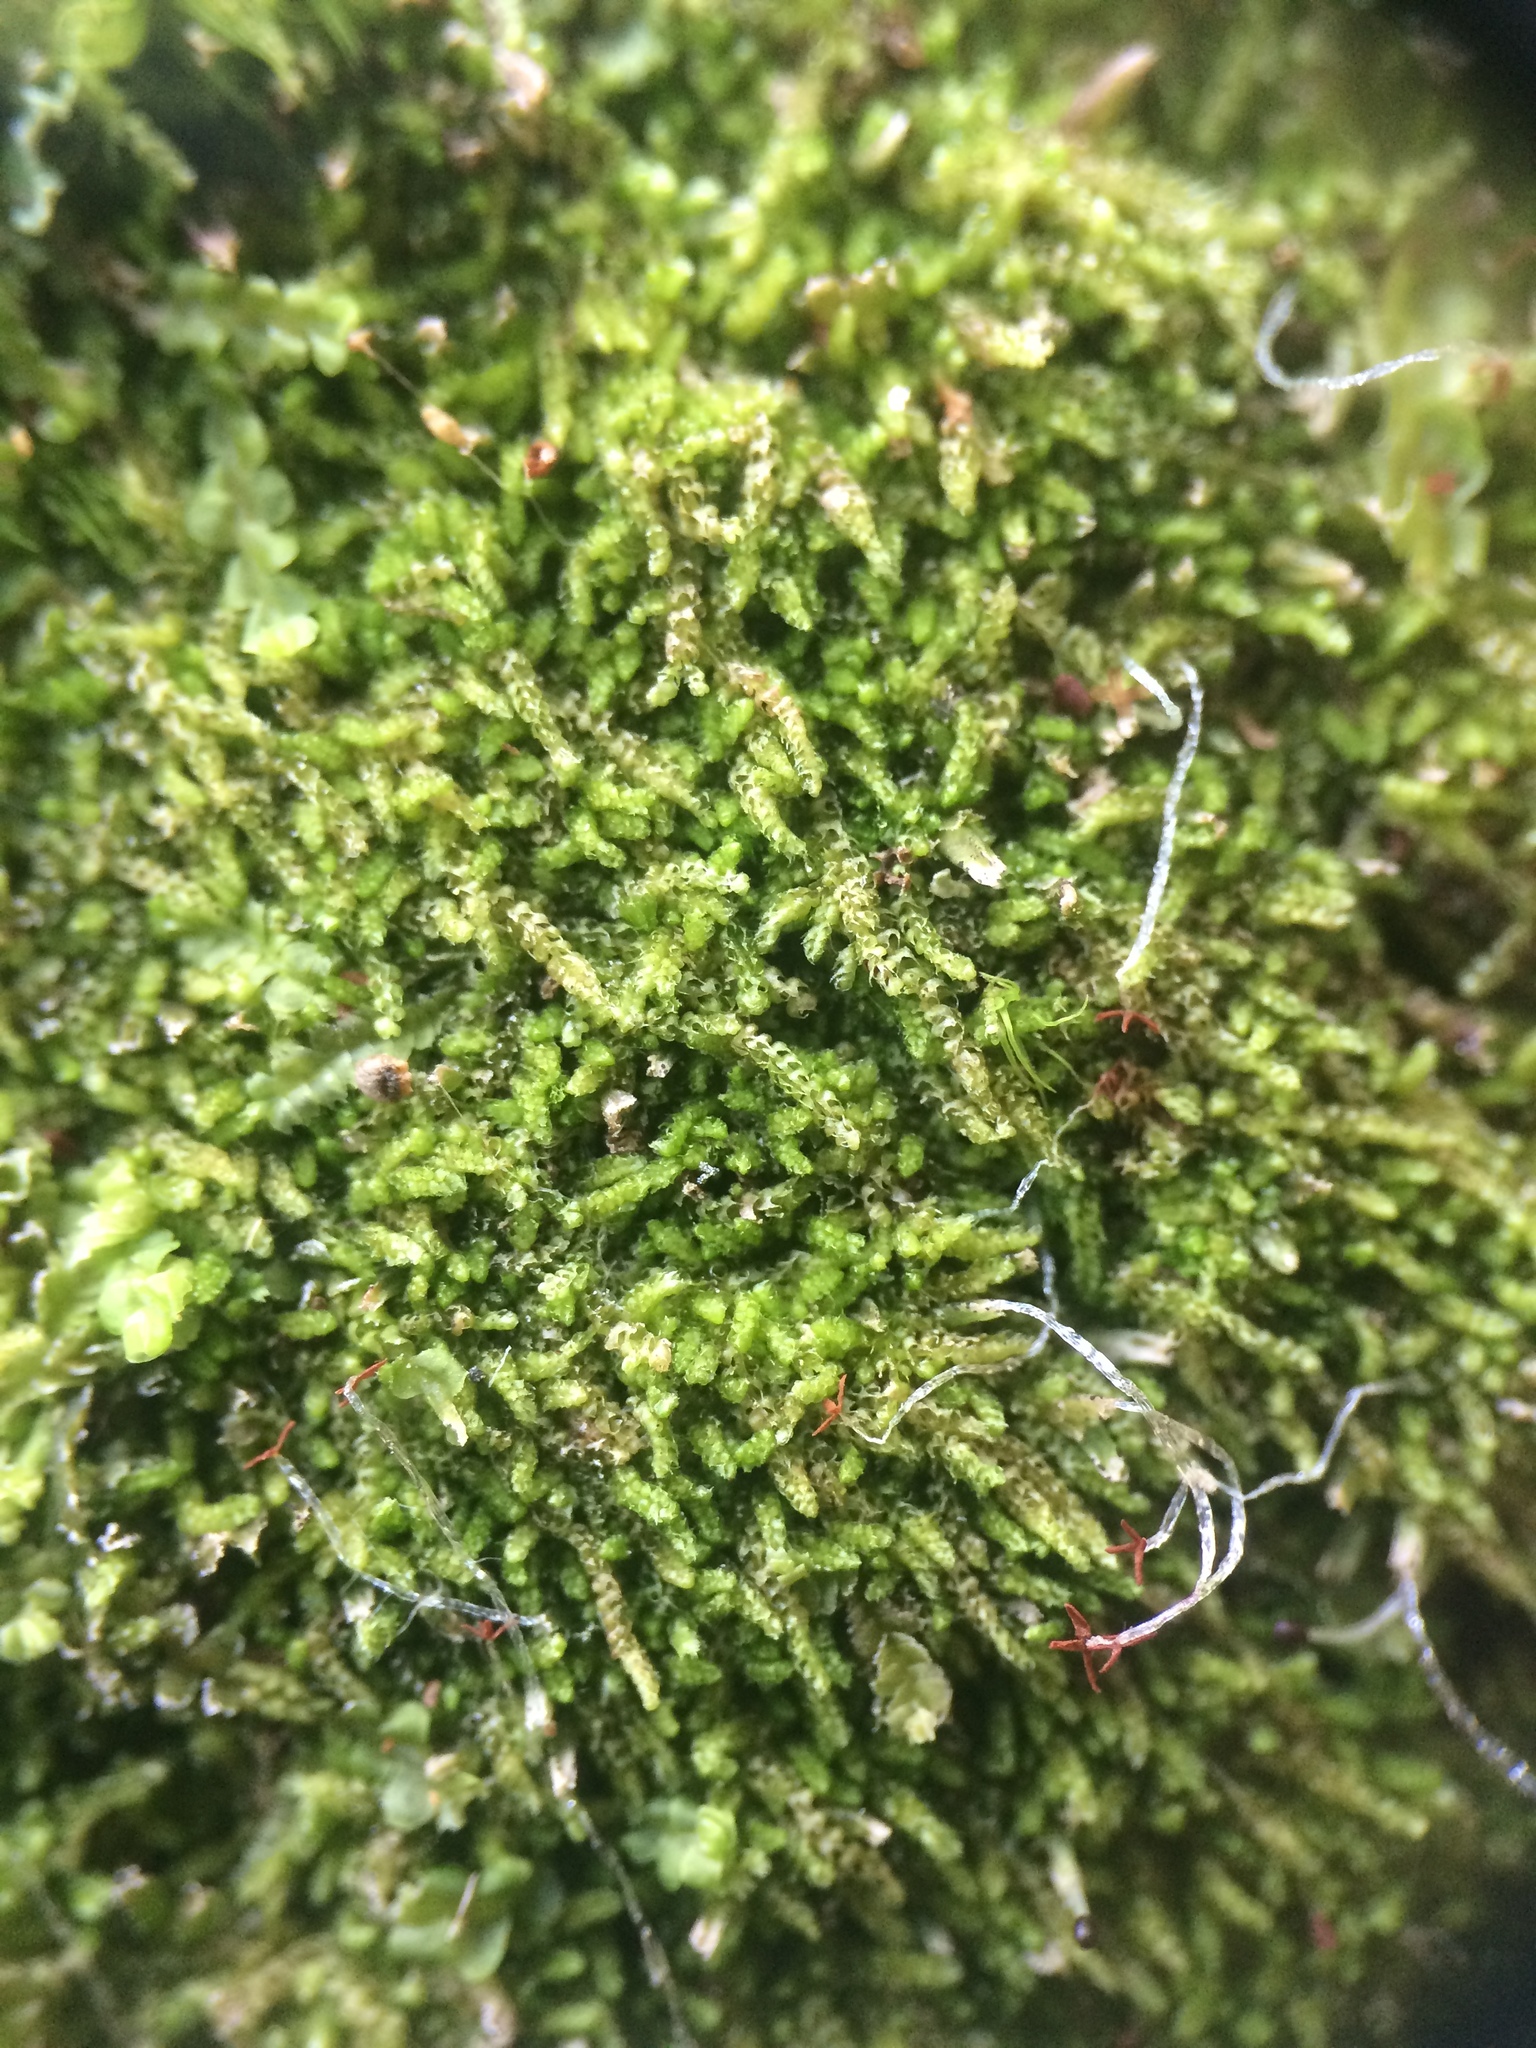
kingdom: Plantae
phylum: Marchantiophyta
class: Jungermanniopsida
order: Jungermanniales
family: Cephaloziaceae
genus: Nowellia
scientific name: Nowellia curvifolia
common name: Wood rustwort
